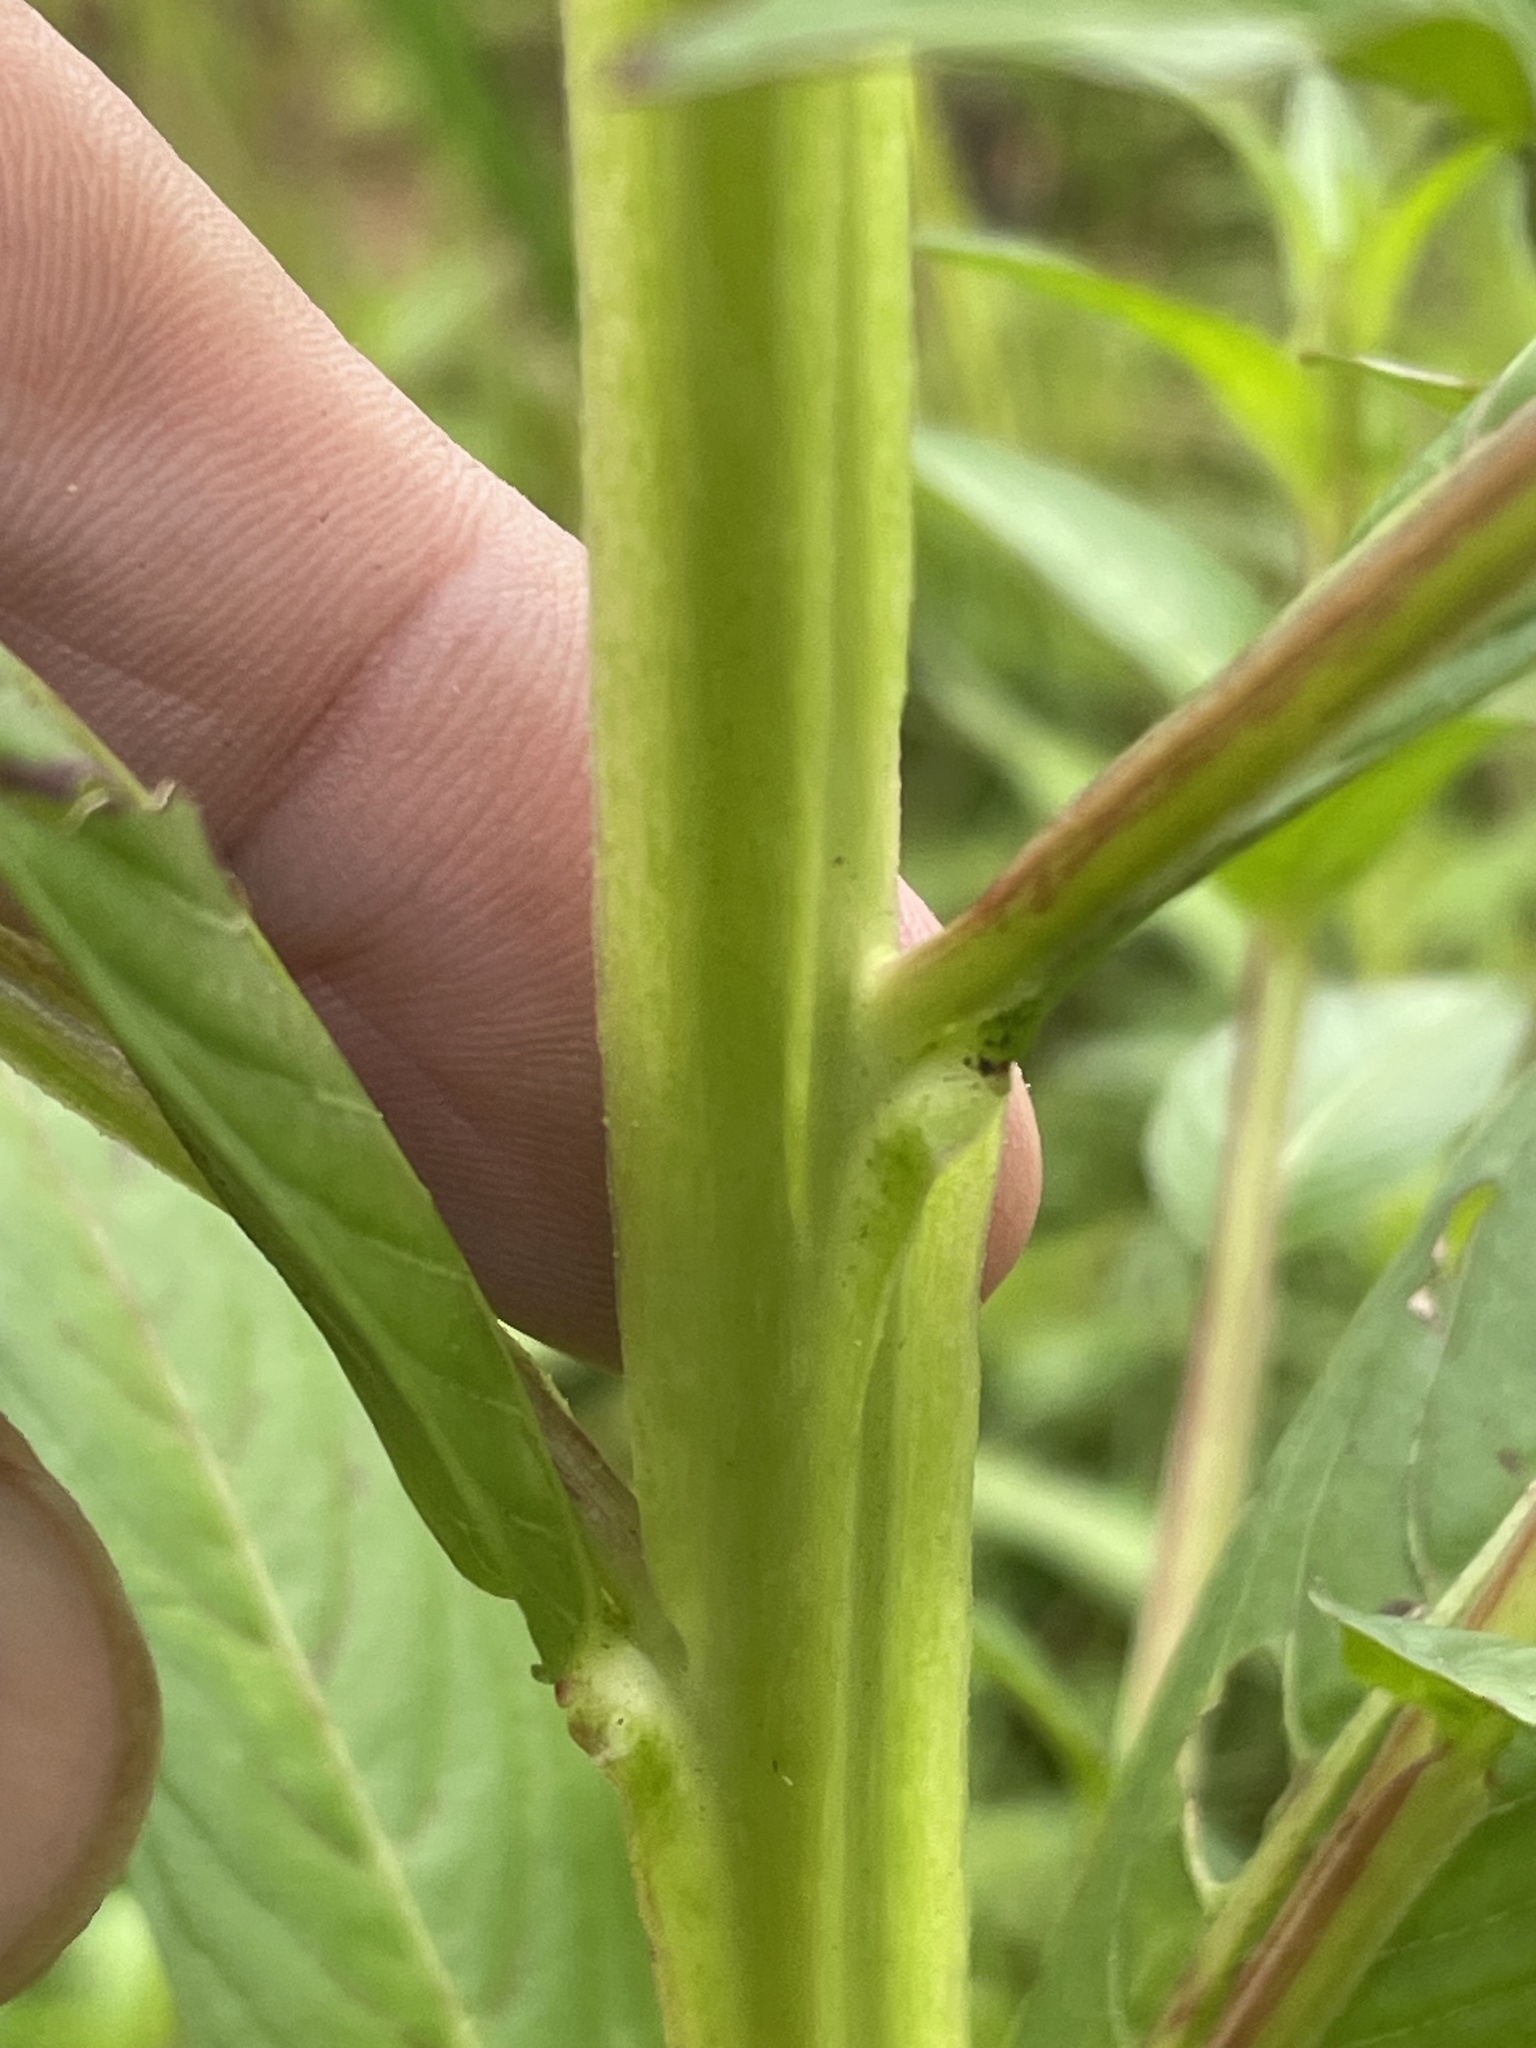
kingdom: Plantae
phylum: Tracheophyta
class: Magnoliopsida
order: Myrtales
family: Onagraceae
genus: Ludwigia
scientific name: Ludwigia decurrens
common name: Winged water-primrose
